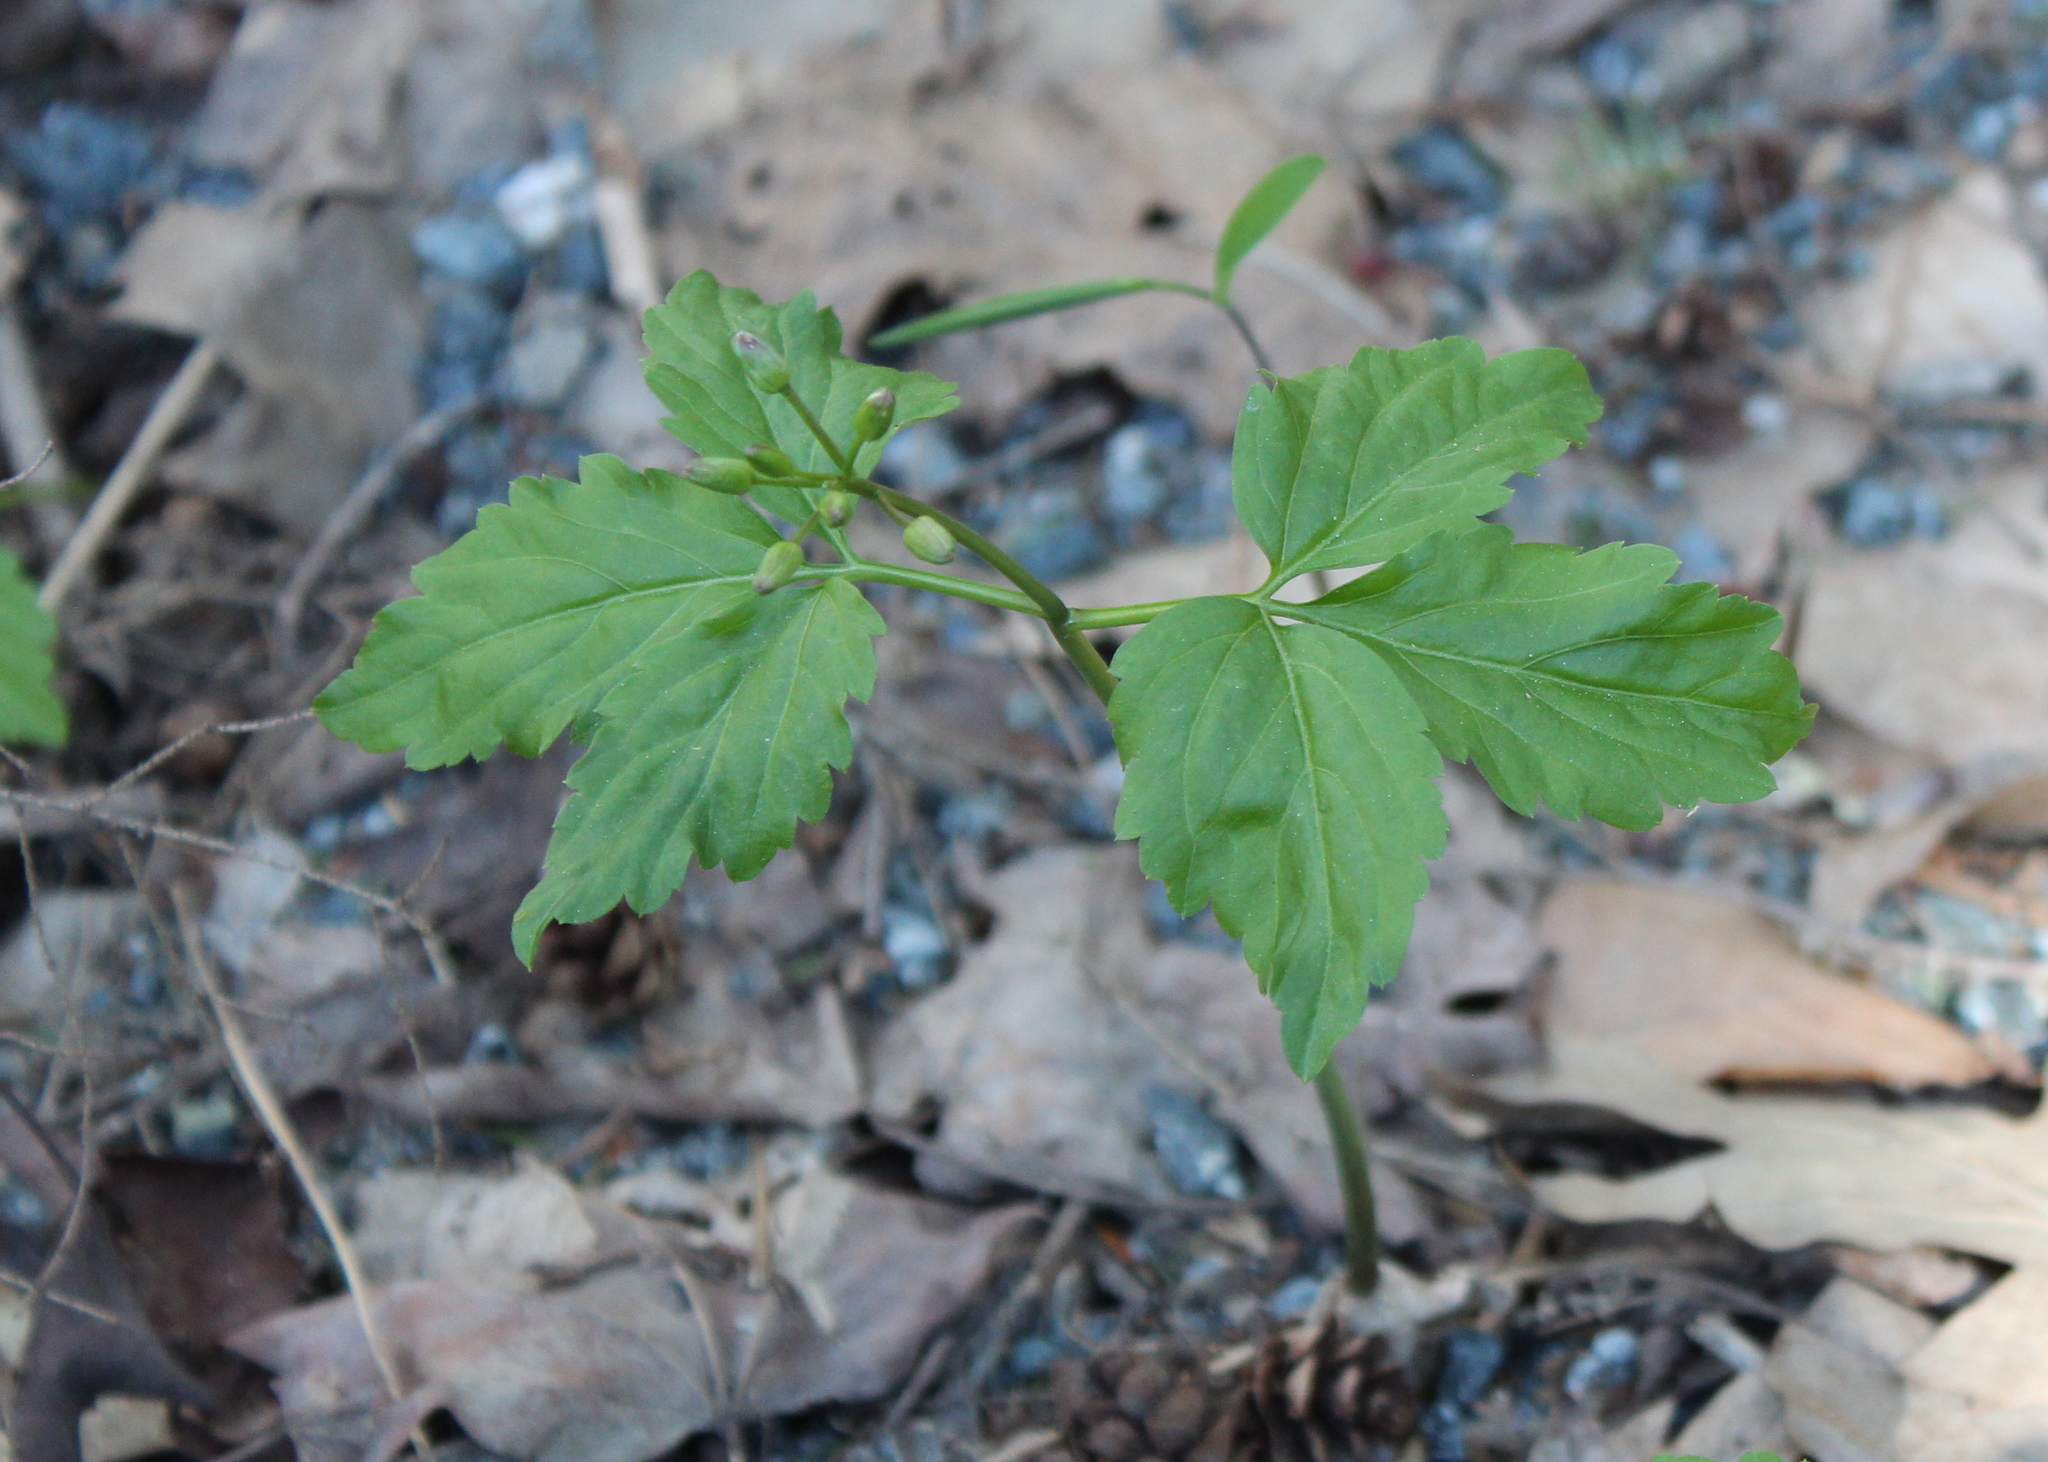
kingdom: Plantae
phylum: Tracheophyta
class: Magnoliopsida
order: Brassicales
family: Brassicaceae
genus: Cardamine
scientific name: Cardamine diphylla
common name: Broad-leaved toothwort
